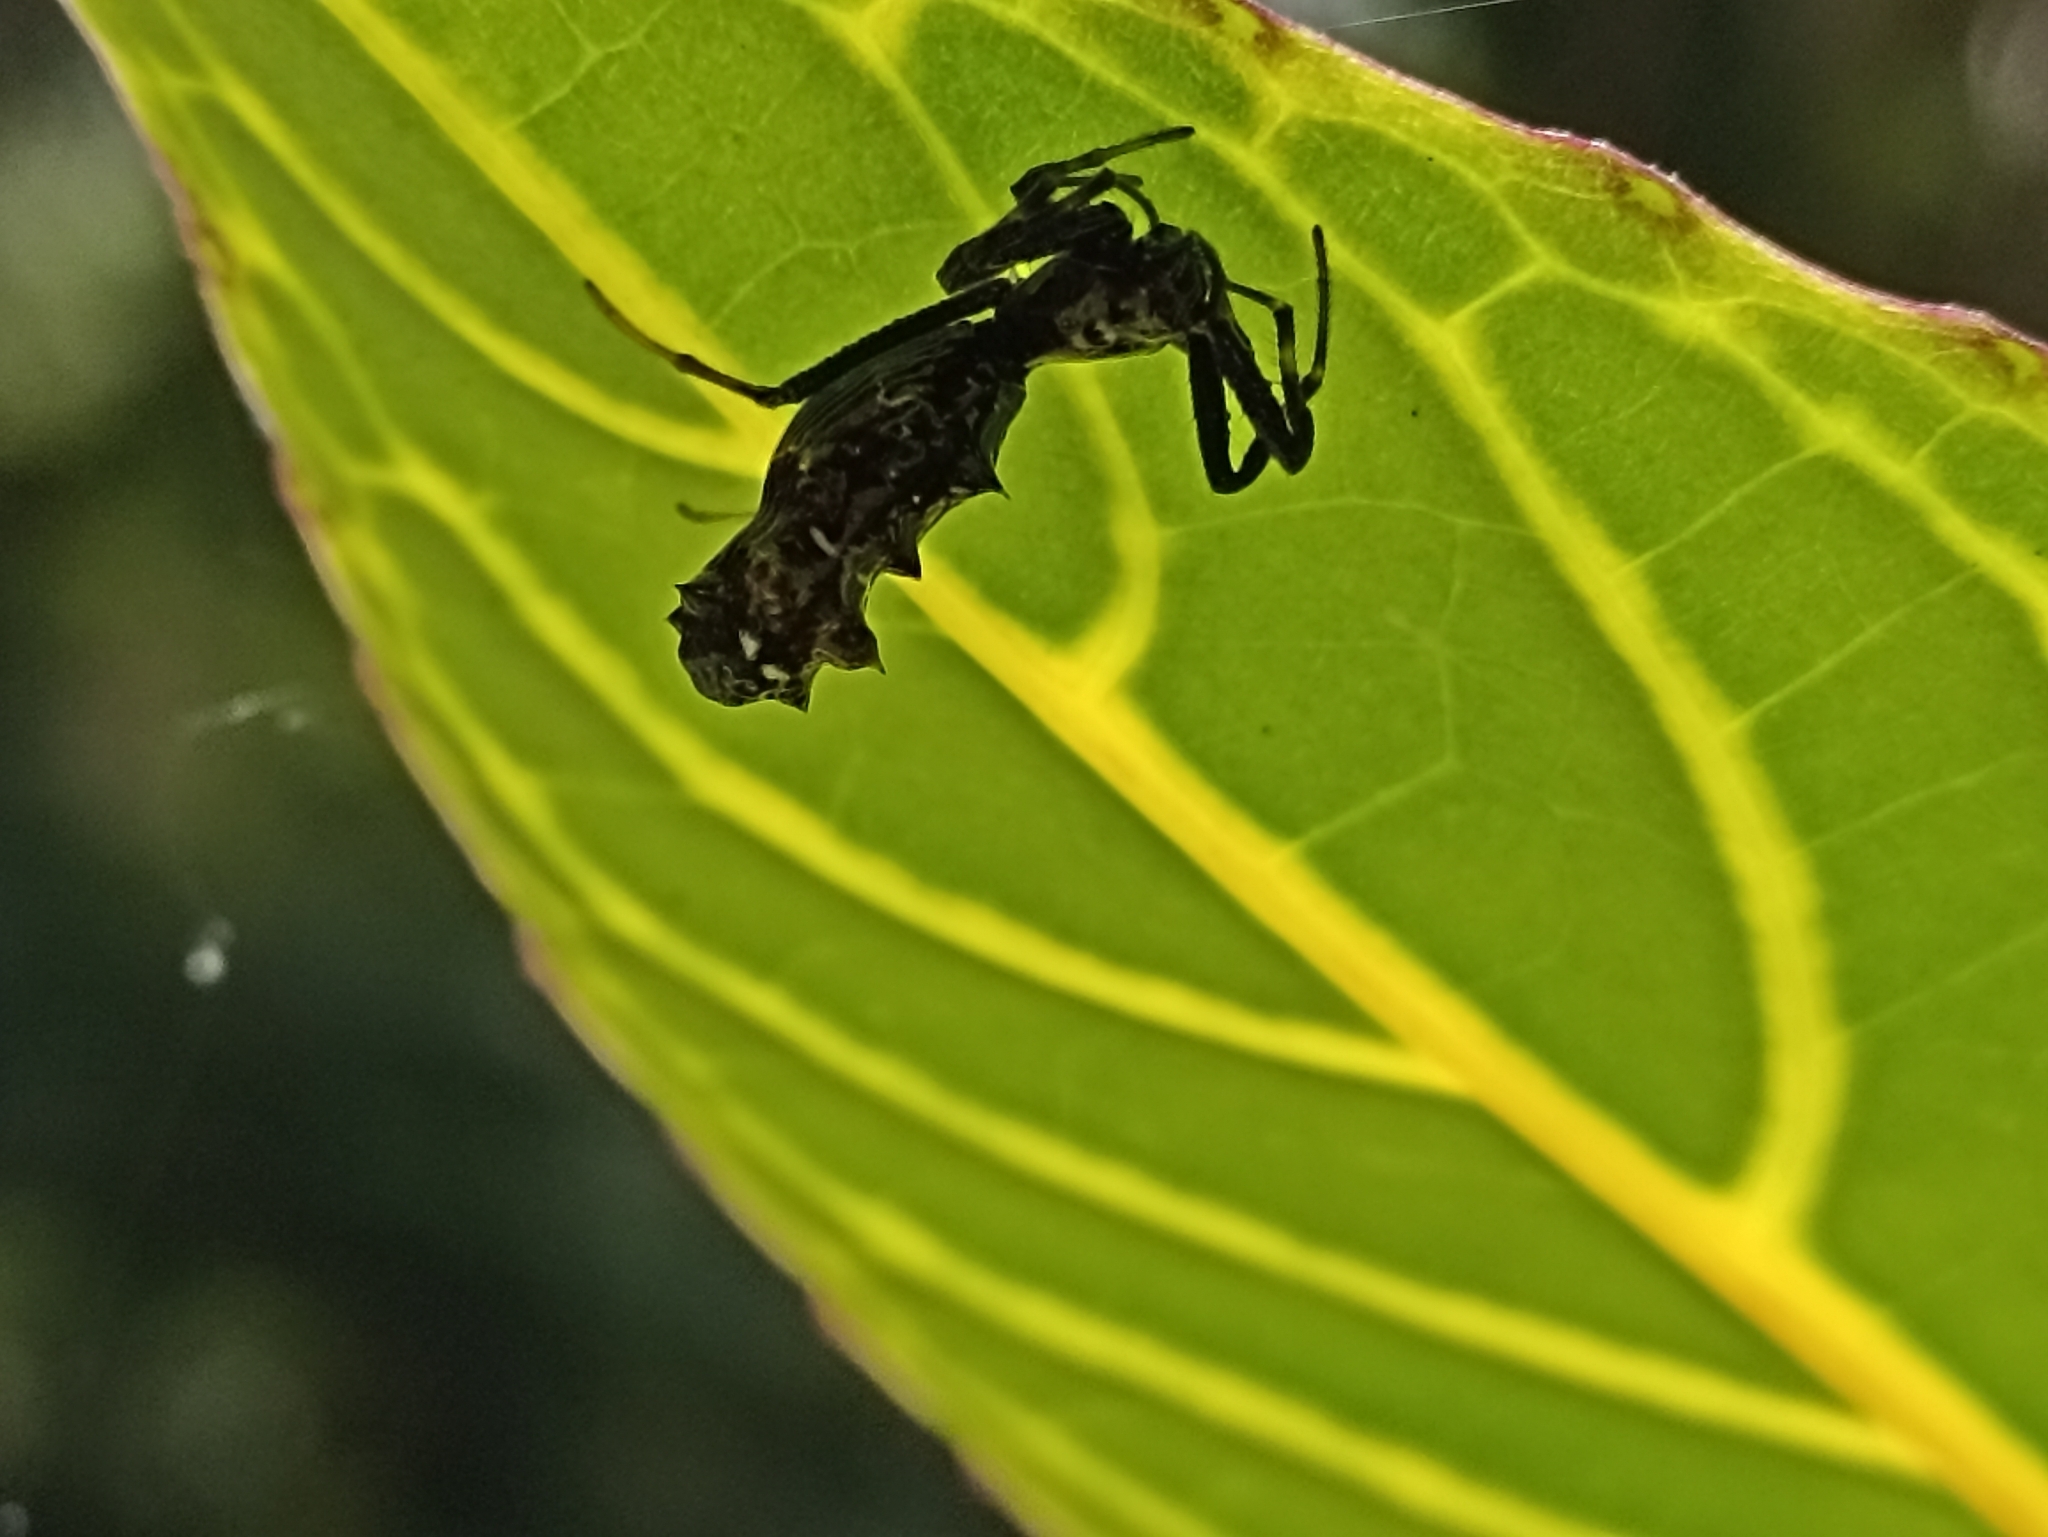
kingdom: Animalia
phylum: Arthropoda
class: Arachnida
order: Araneae
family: Araneidae
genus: Micrathena
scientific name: Micrathena spitzi
